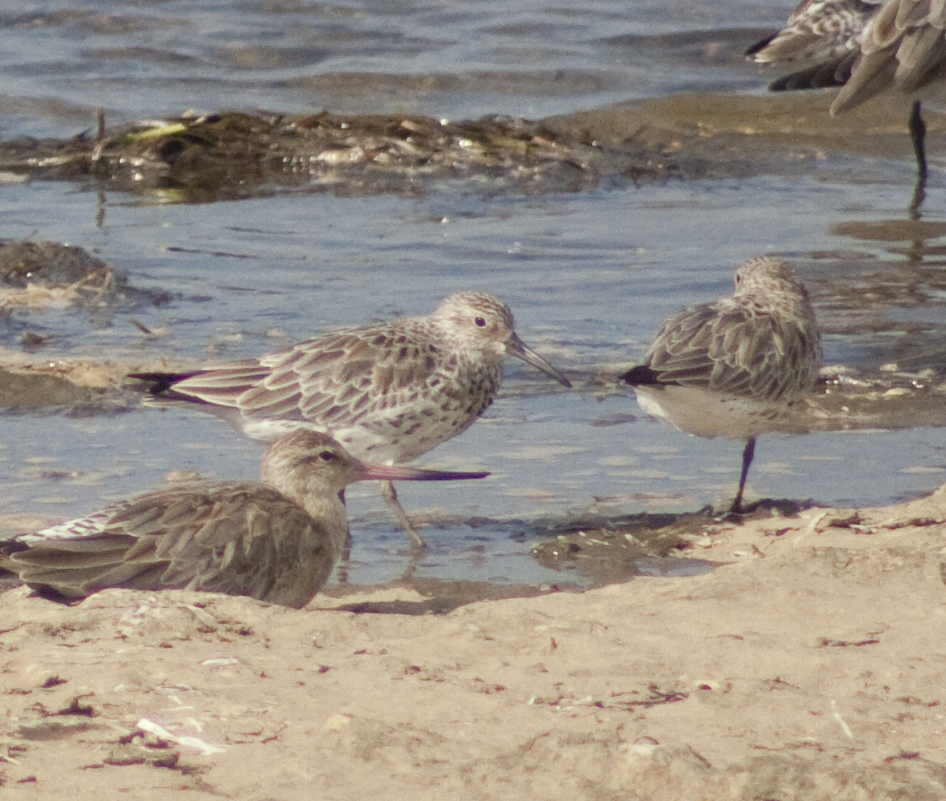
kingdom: Animalia
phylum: Chordata
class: Aves
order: Charadriiformes
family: Scolopacidae
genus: Calidris
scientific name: Calidris tenuirostris
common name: Great knot
